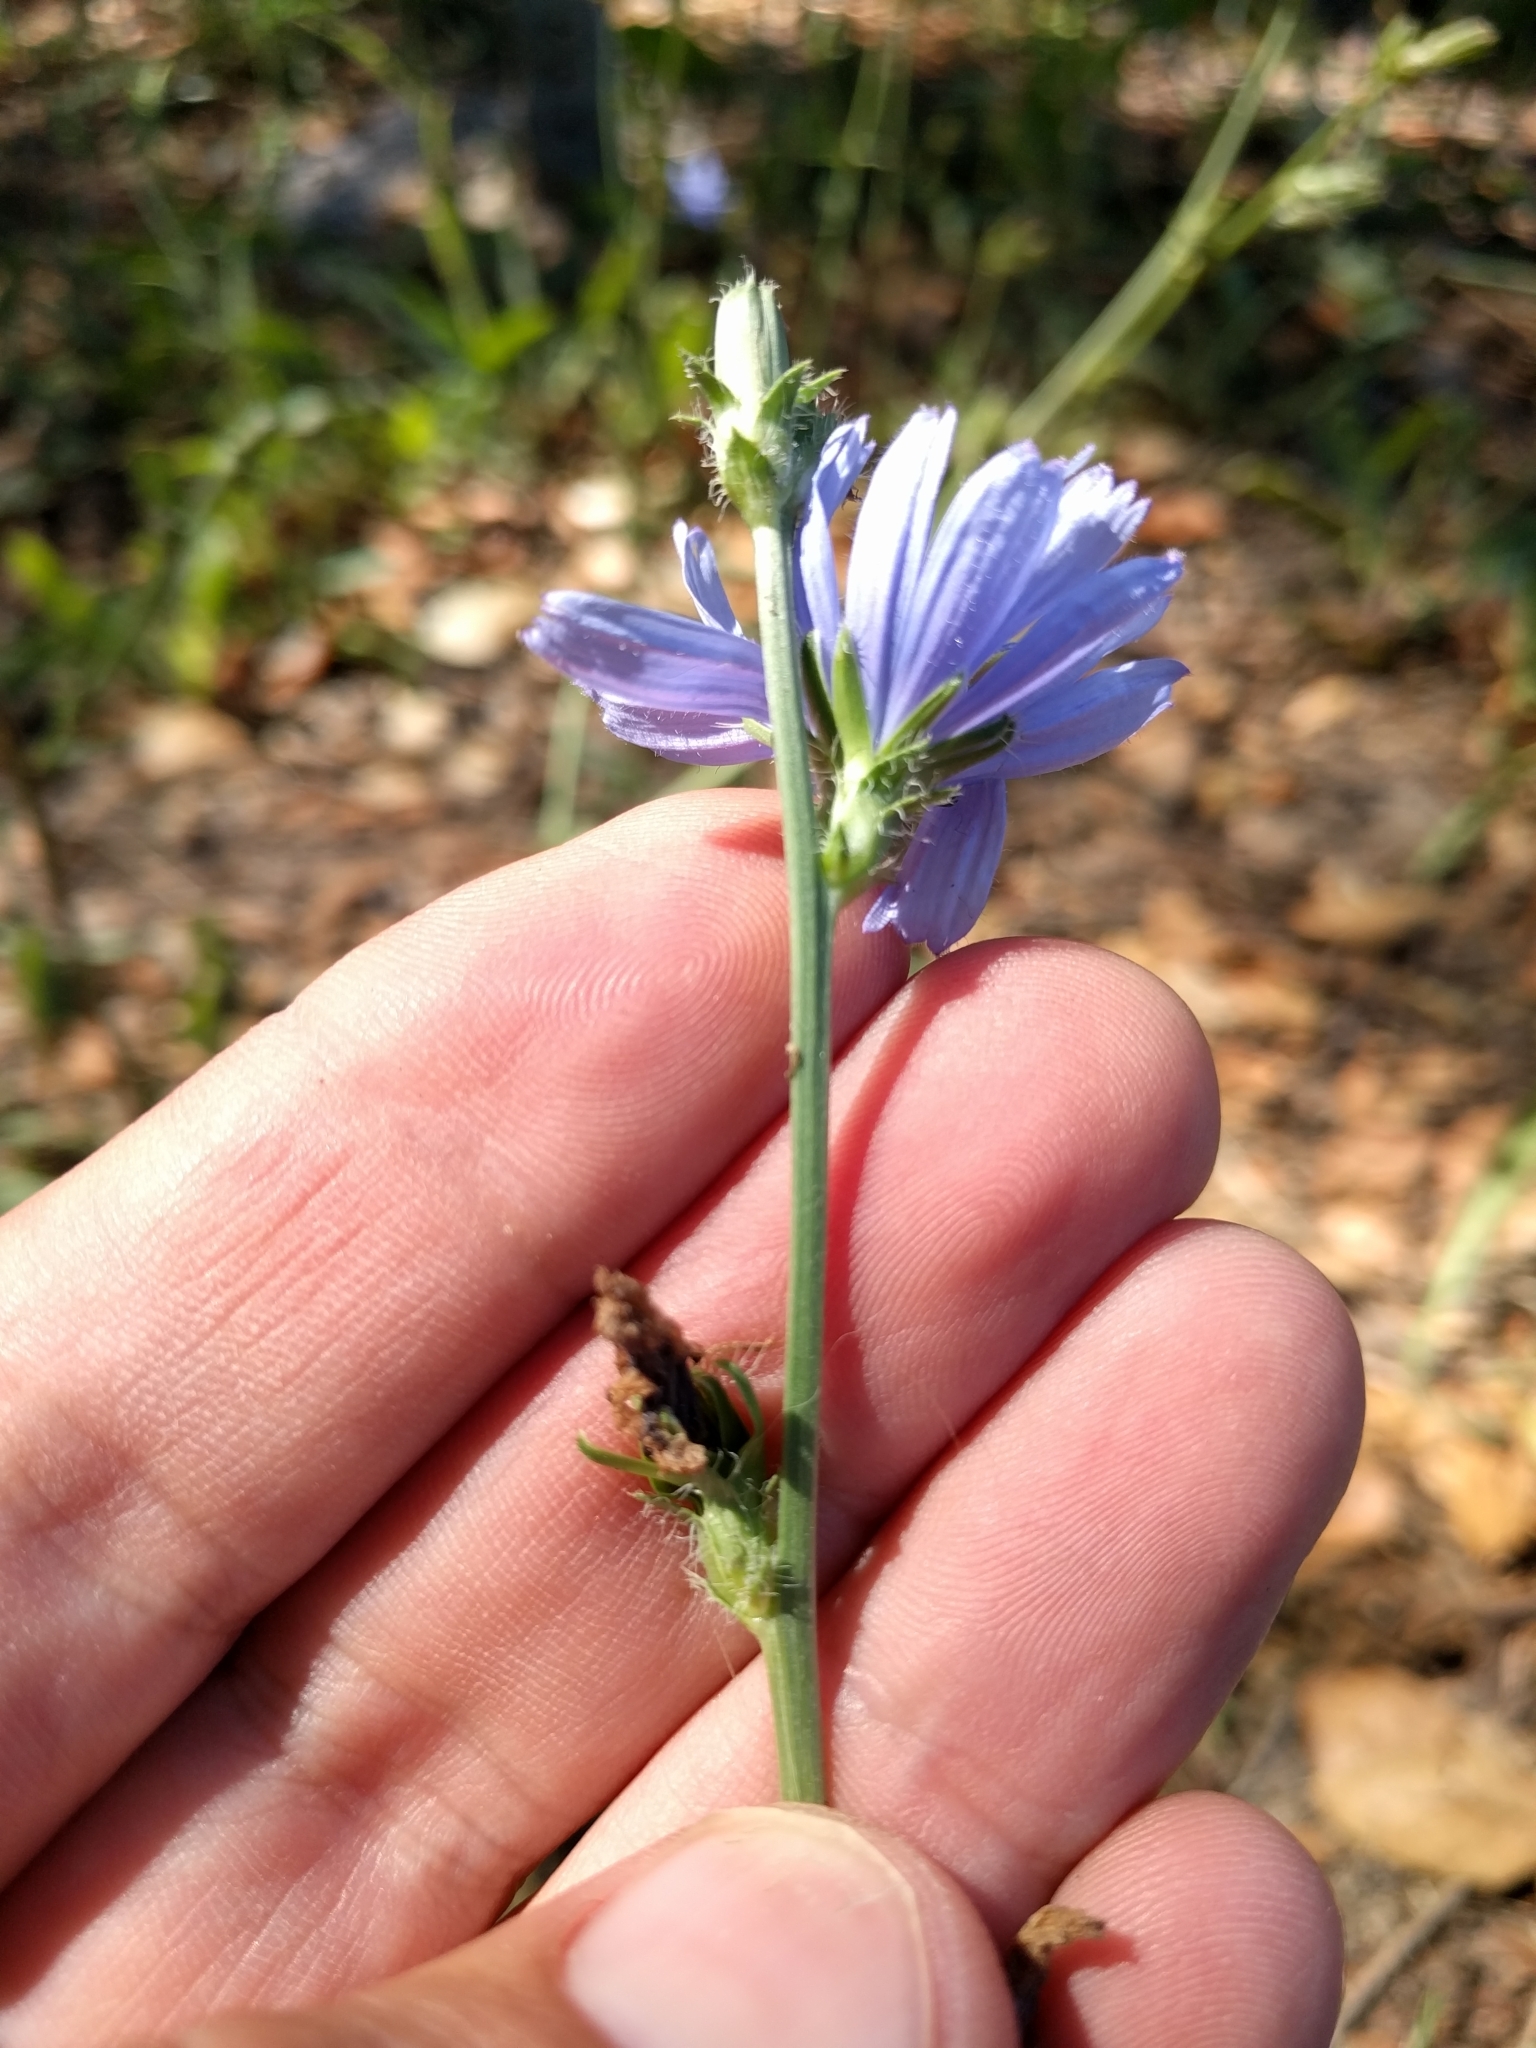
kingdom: Plantae
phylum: Tracheophyta
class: Magnoliopsida
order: Asterales
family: Asteraceae
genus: Cichorium
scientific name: Cichorium intybus
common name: Chicory
